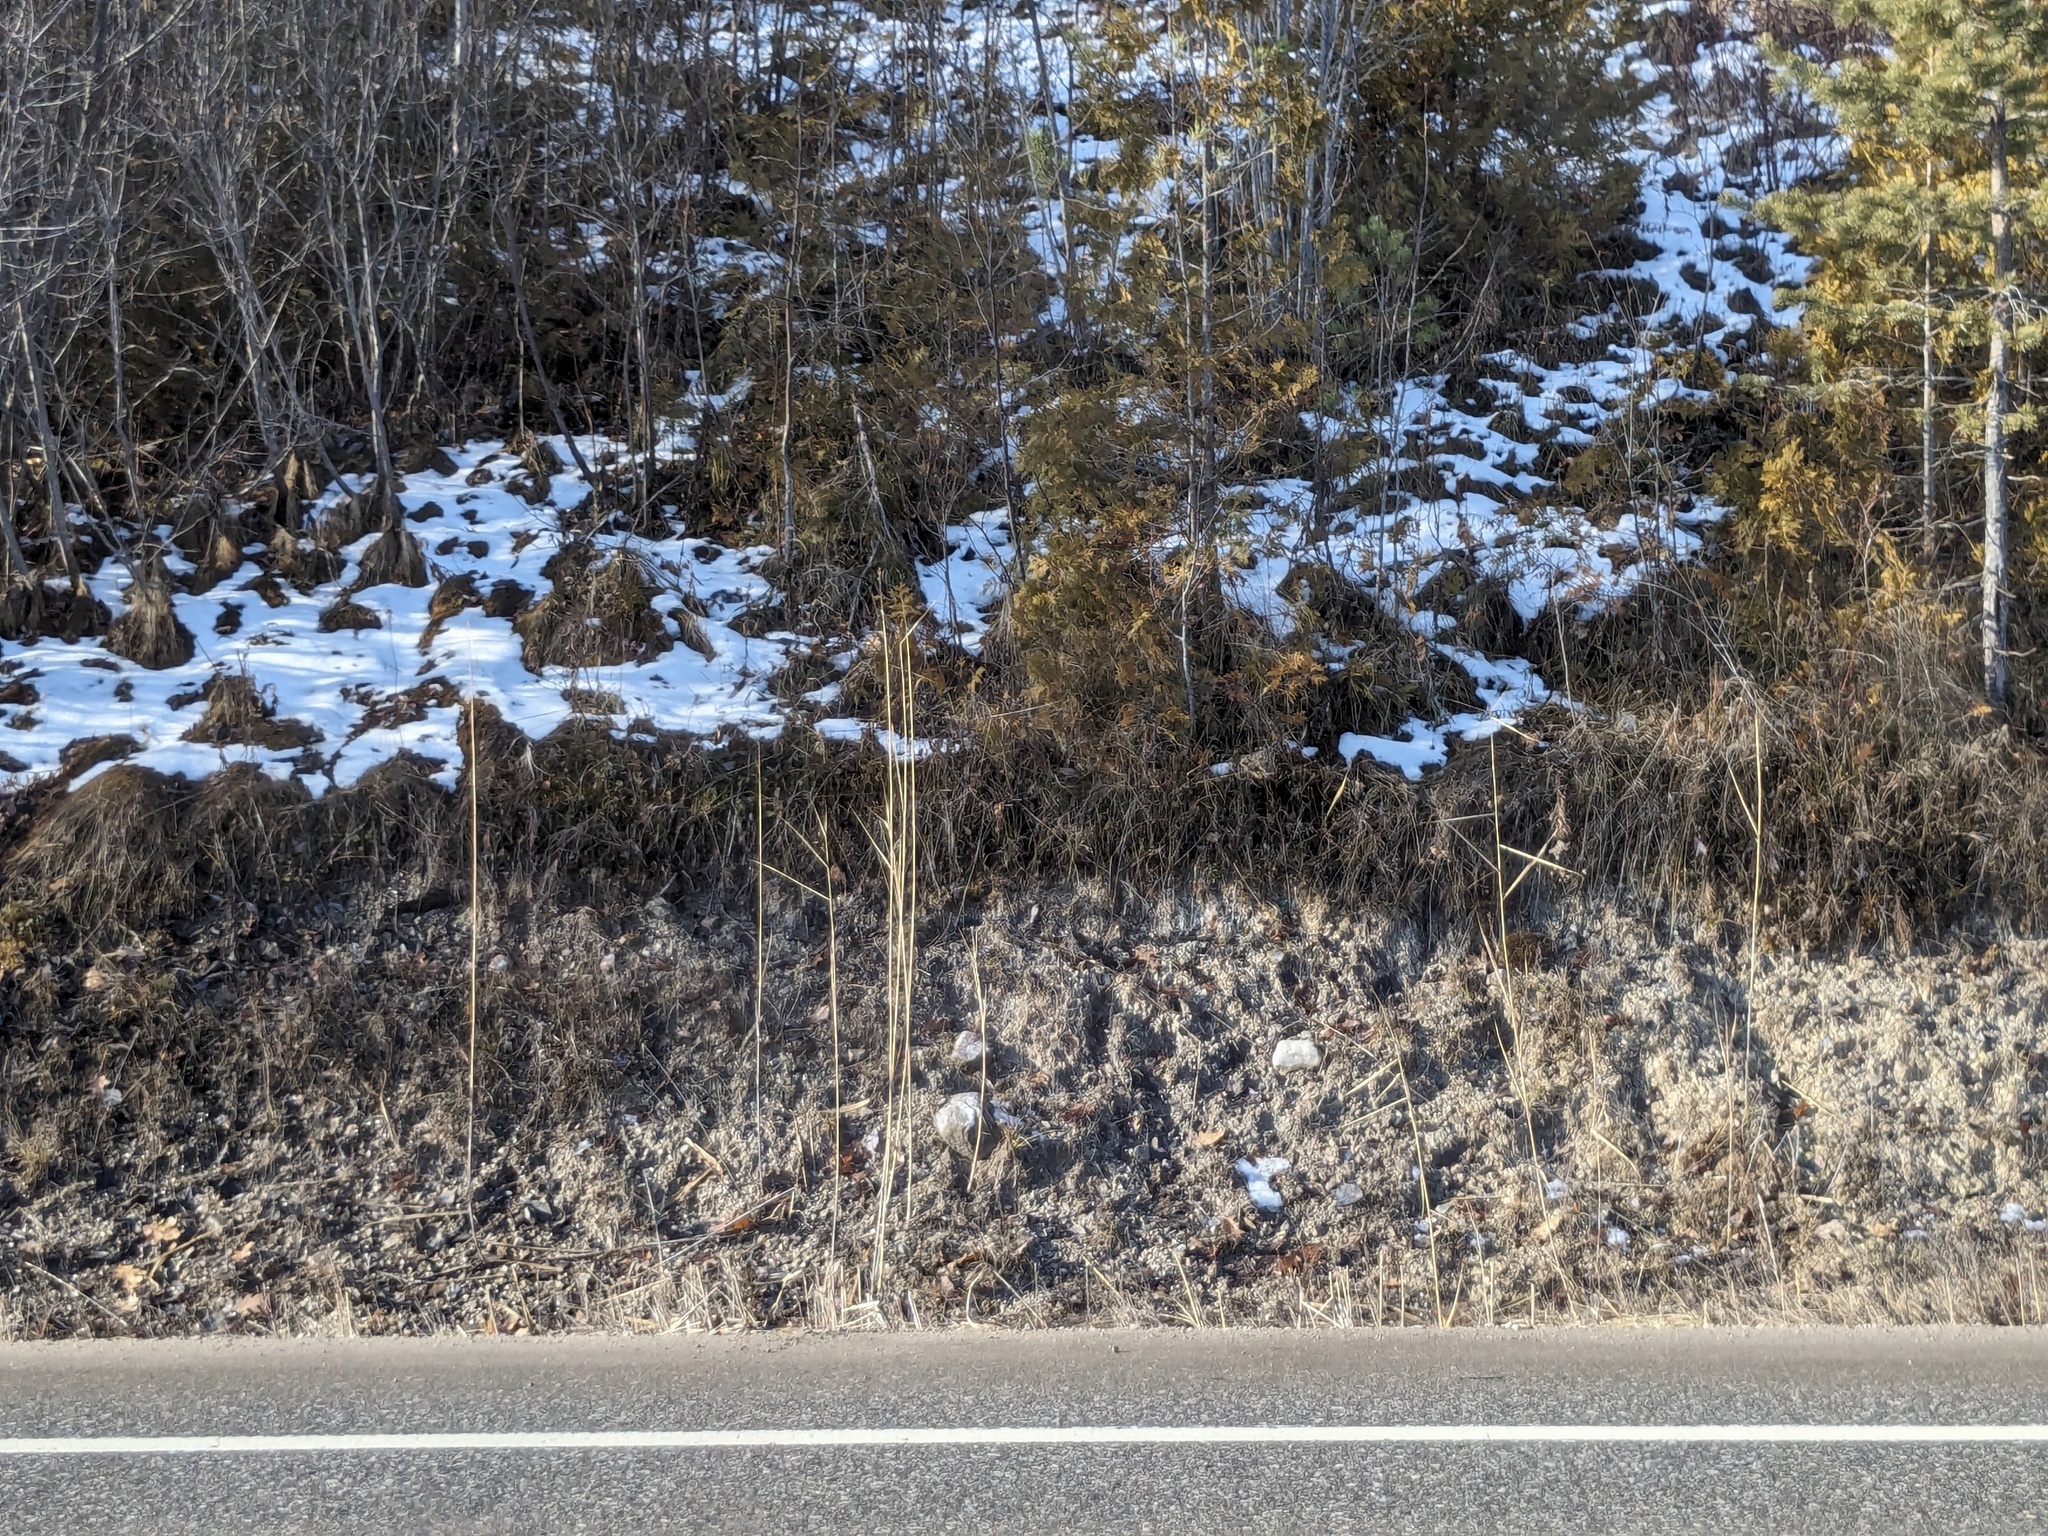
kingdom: Plantae
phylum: Tracheophyta
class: Liliopsida
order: Poales
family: Poaceae
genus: Phragmites
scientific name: Phragmites australis
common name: Common reed
